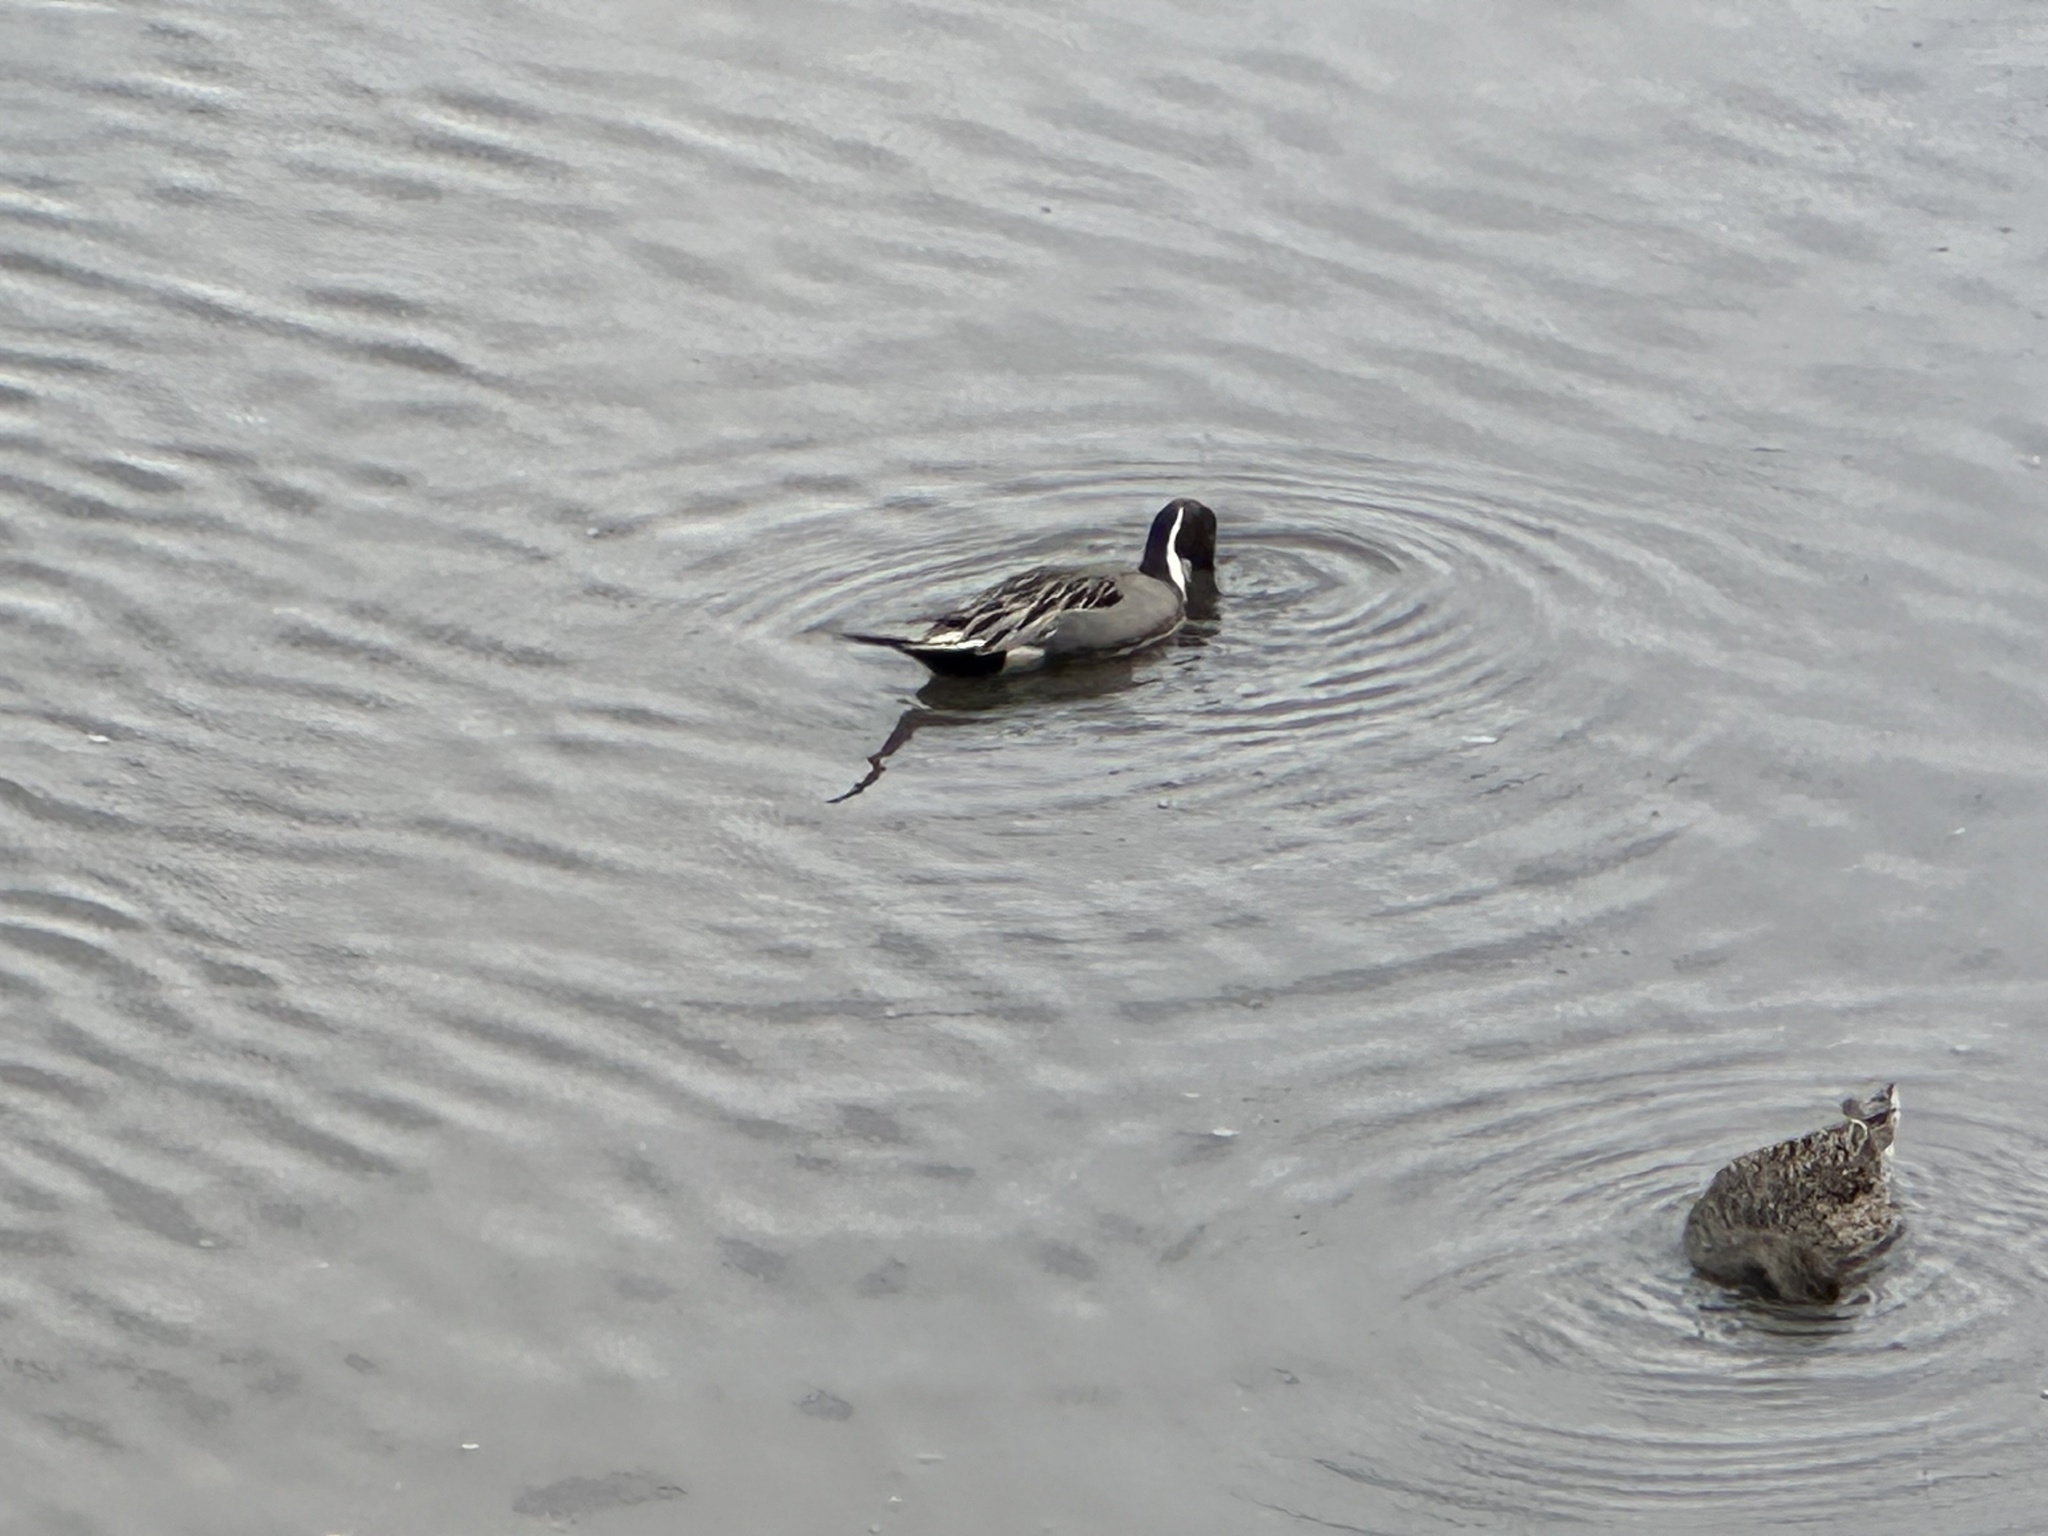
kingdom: Animalia
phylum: Chordata
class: Aves
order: Anseriformes
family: Anatidae
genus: Anas
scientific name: Anas acuta
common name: Northern pintail
